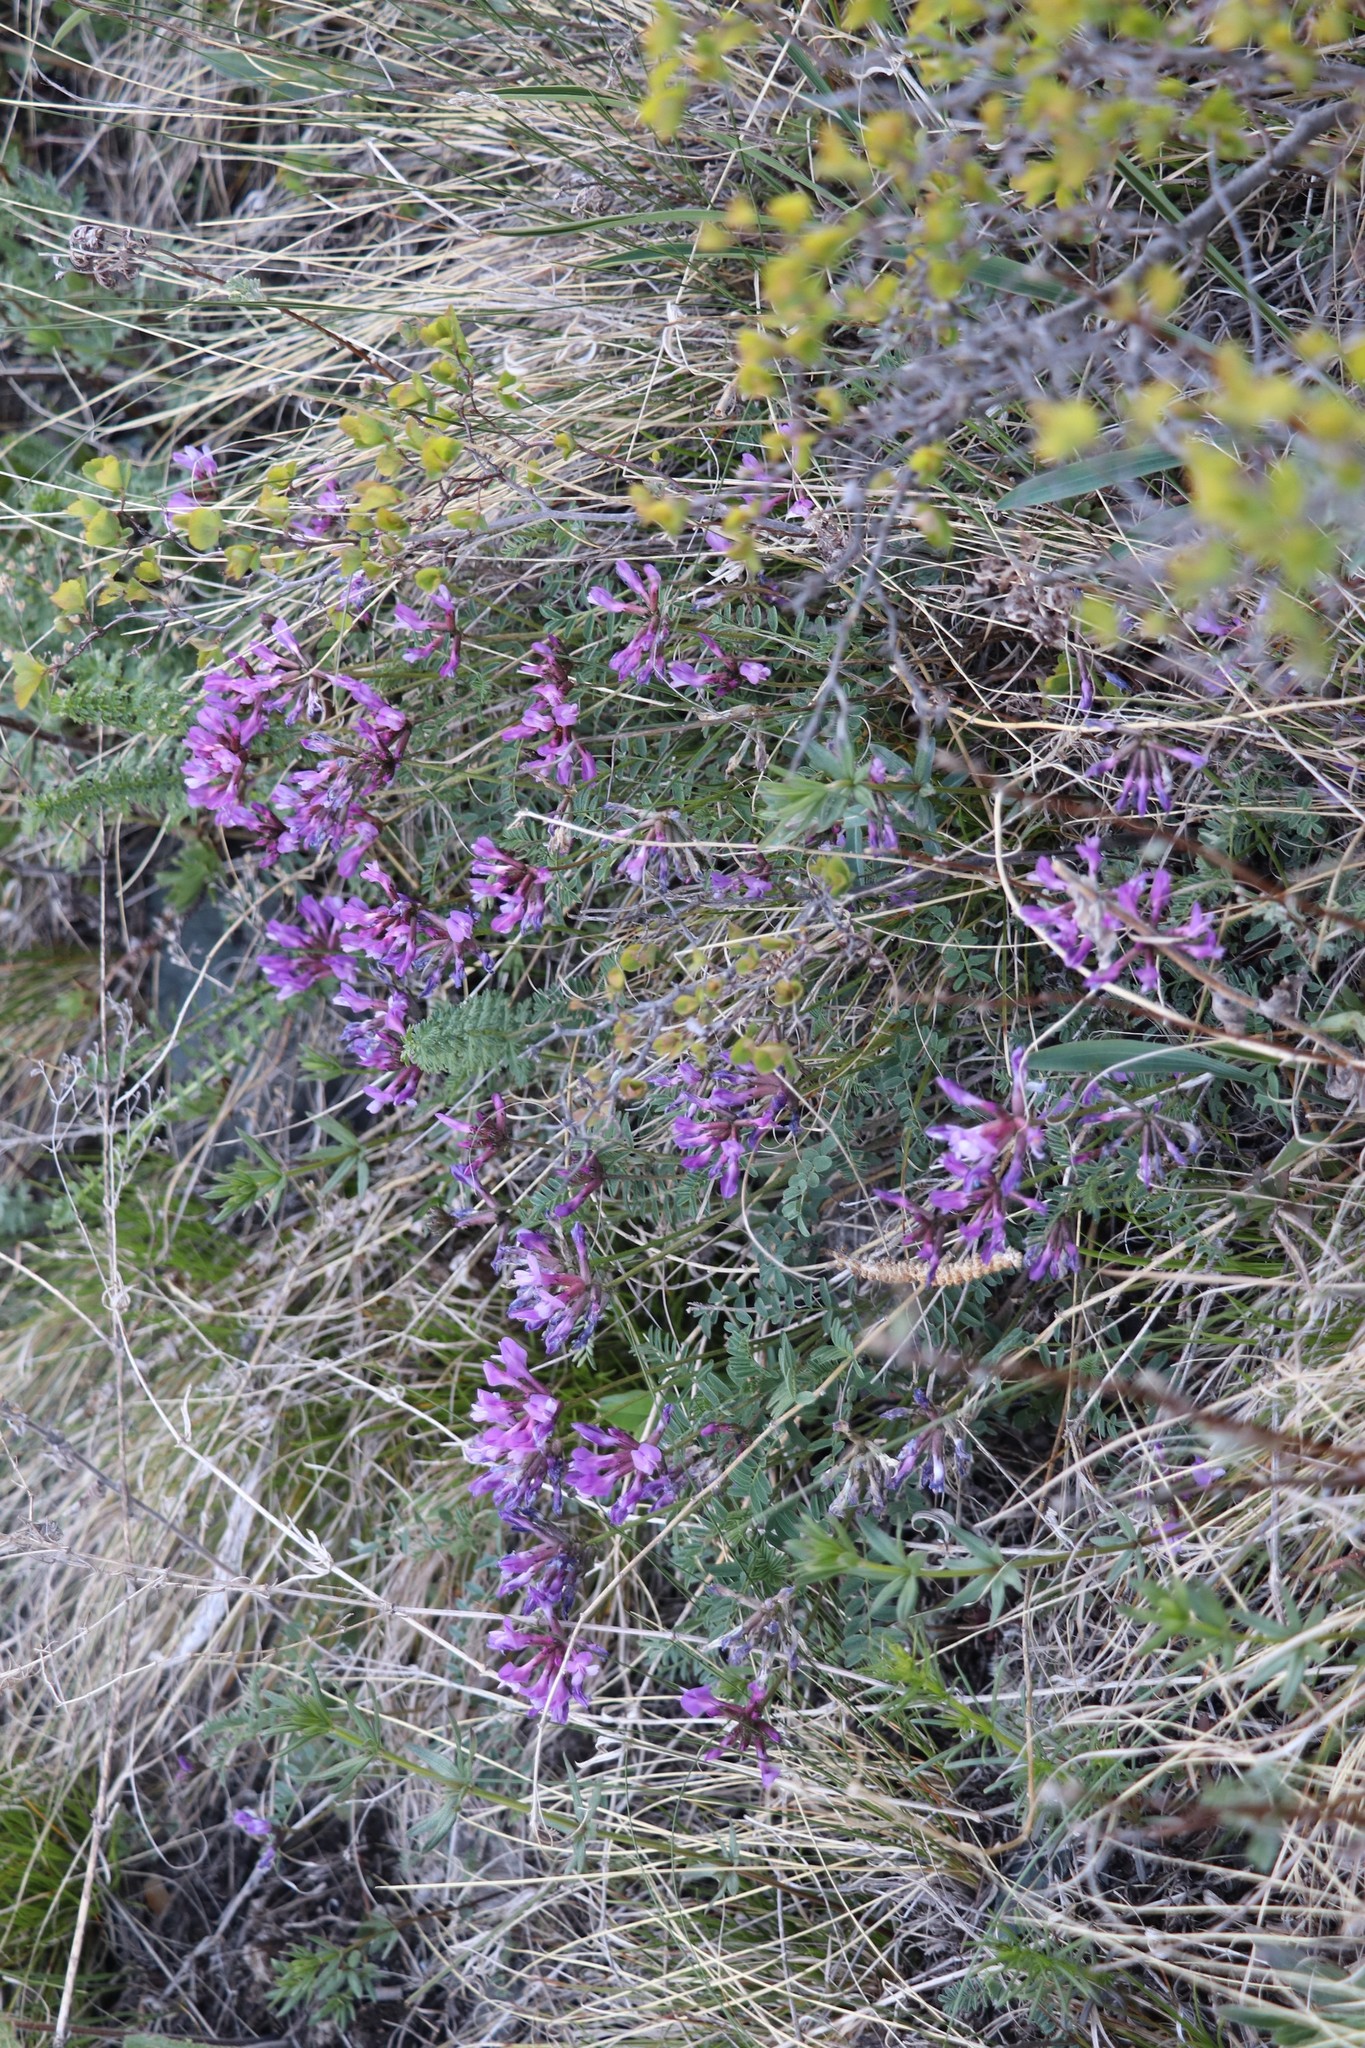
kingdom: Plantae
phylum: Tracheophyta
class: Magnoliopsida
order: Fabales
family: Fabaceae
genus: Astragalus
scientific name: Astragalus ceratoides
